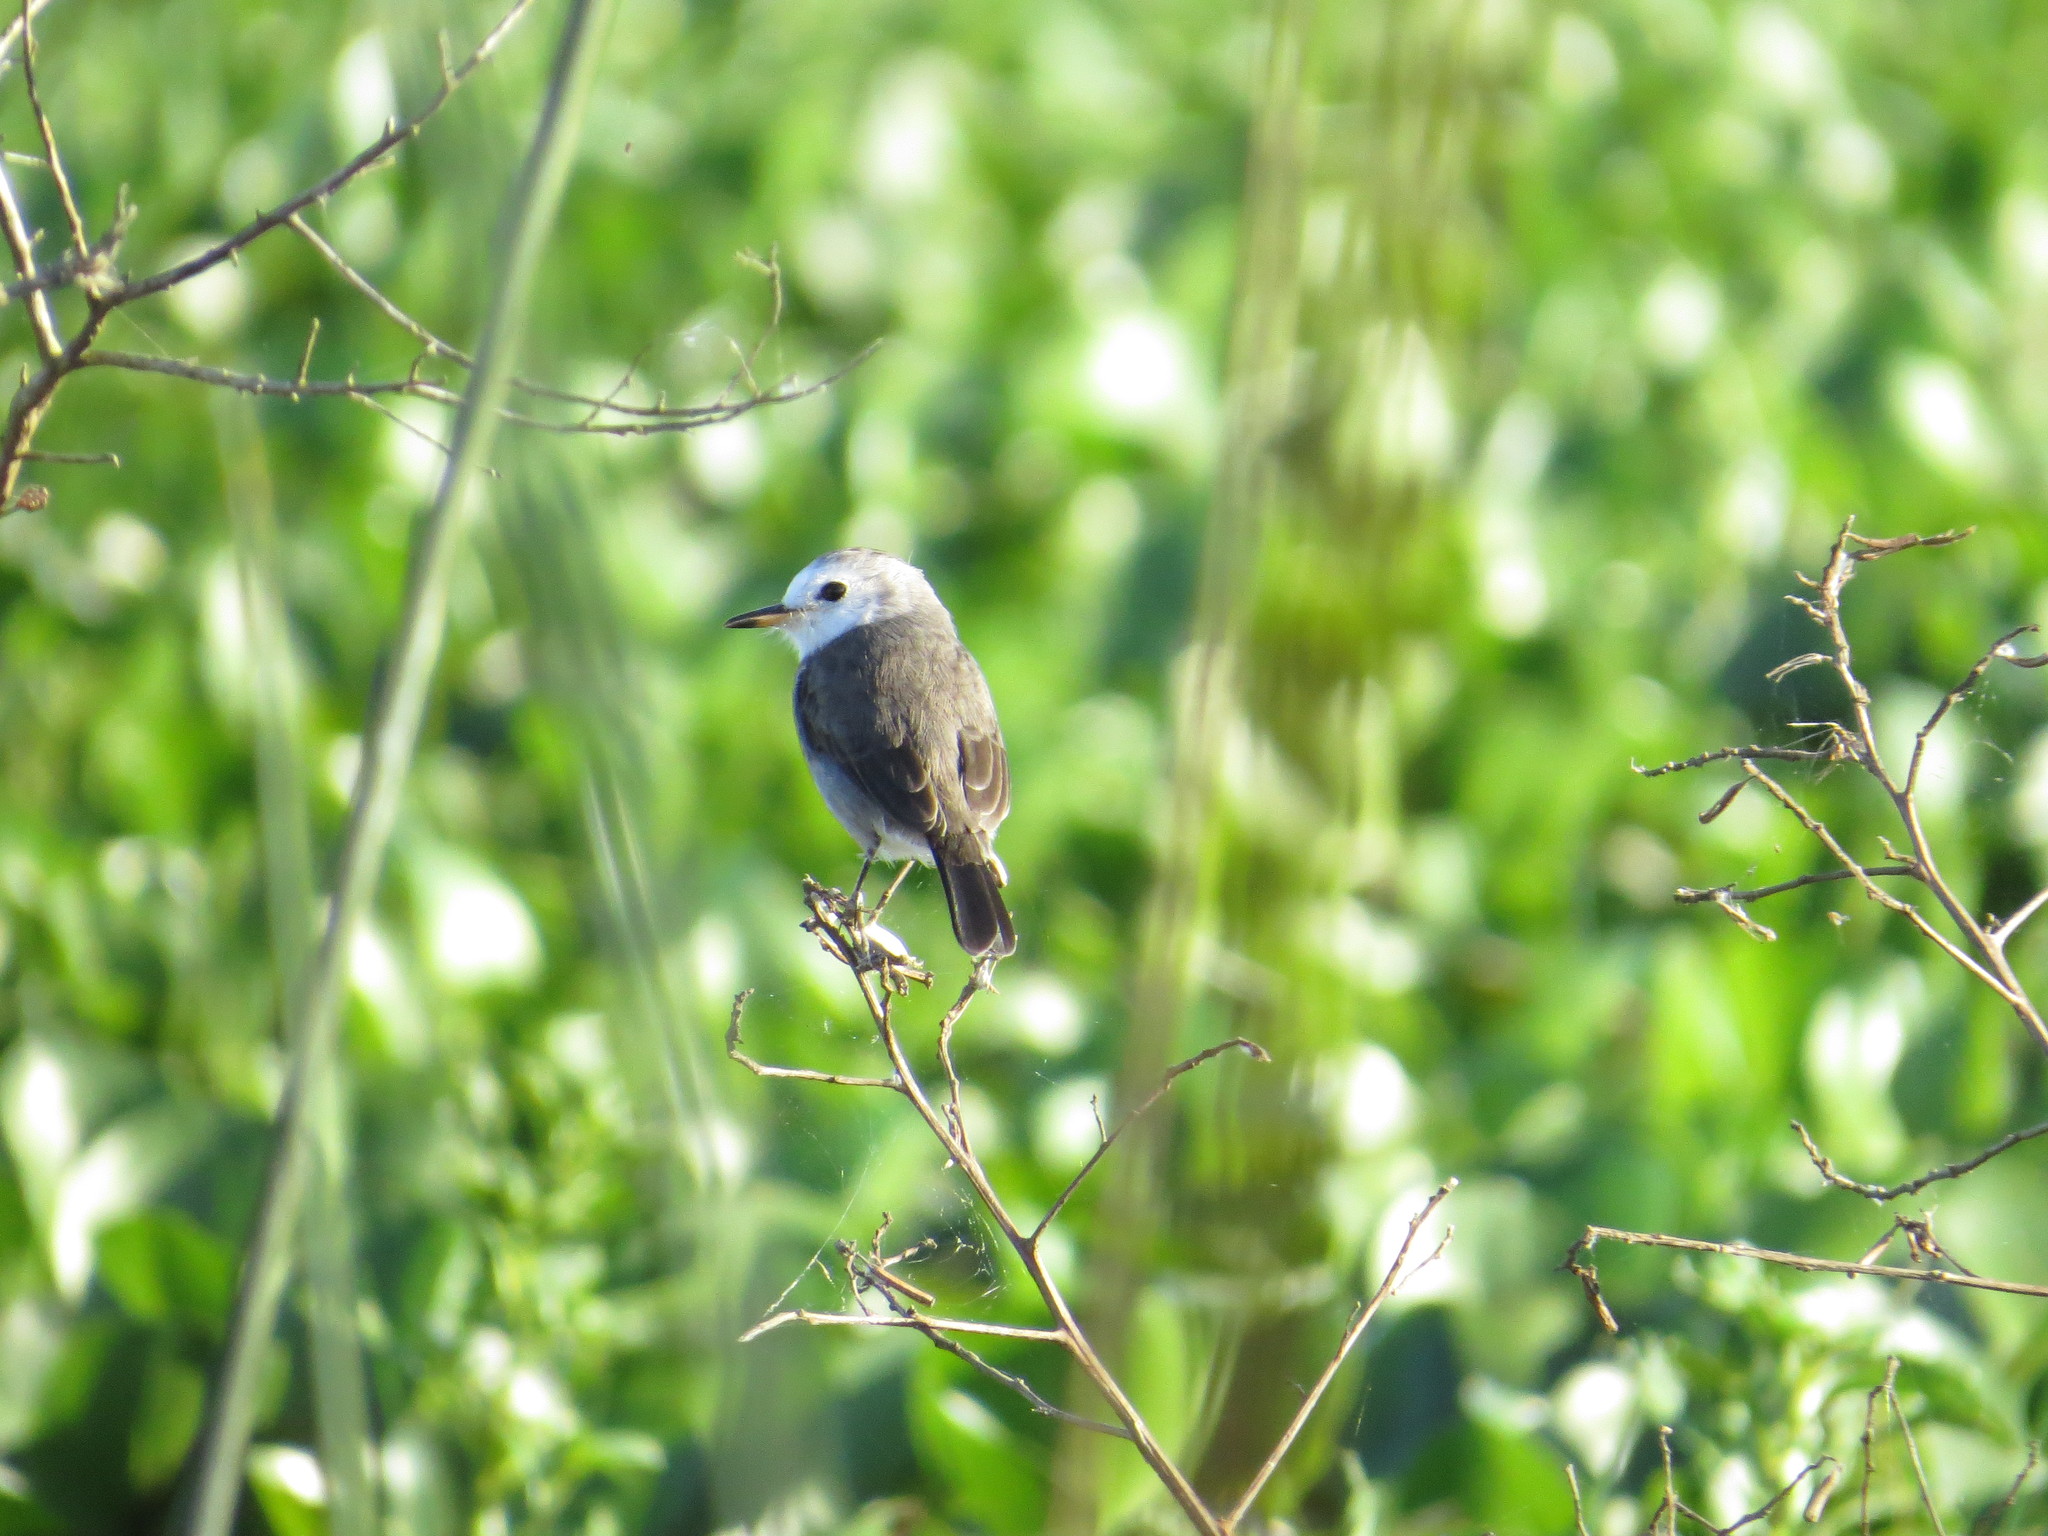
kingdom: Animalia
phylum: Chordata
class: Aves
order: Passeriformes
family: Tyrannidae
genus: Arundinicola
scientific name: Arundinicola leucocephala
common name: White-headed marsh tyrant
